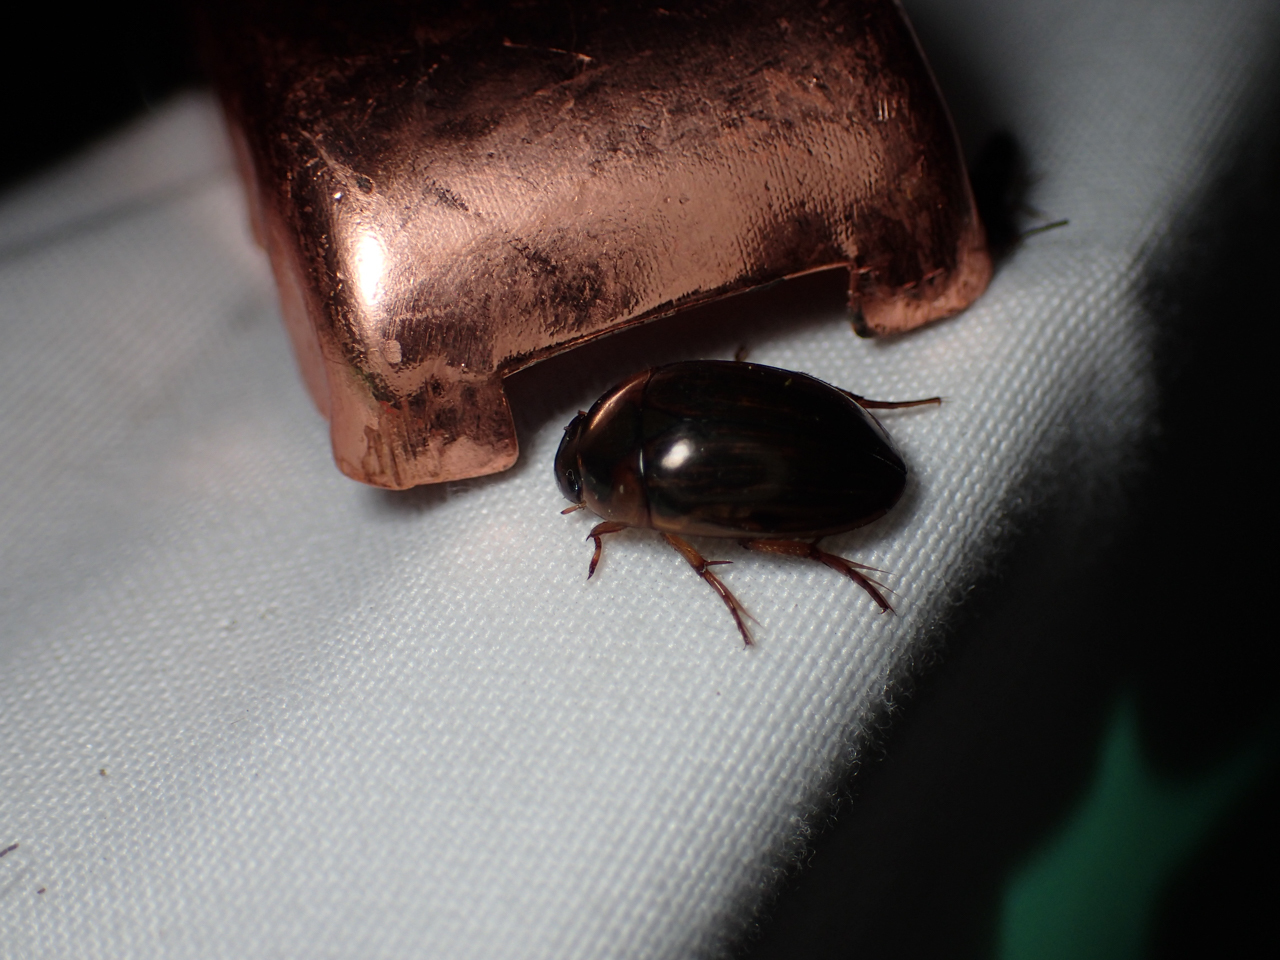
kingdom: Animalia
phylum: Arthropoda
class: Insecta
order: Coleoptera
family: Hydrophilidae
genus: Tropisternus
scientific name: Tropisternus collaris
